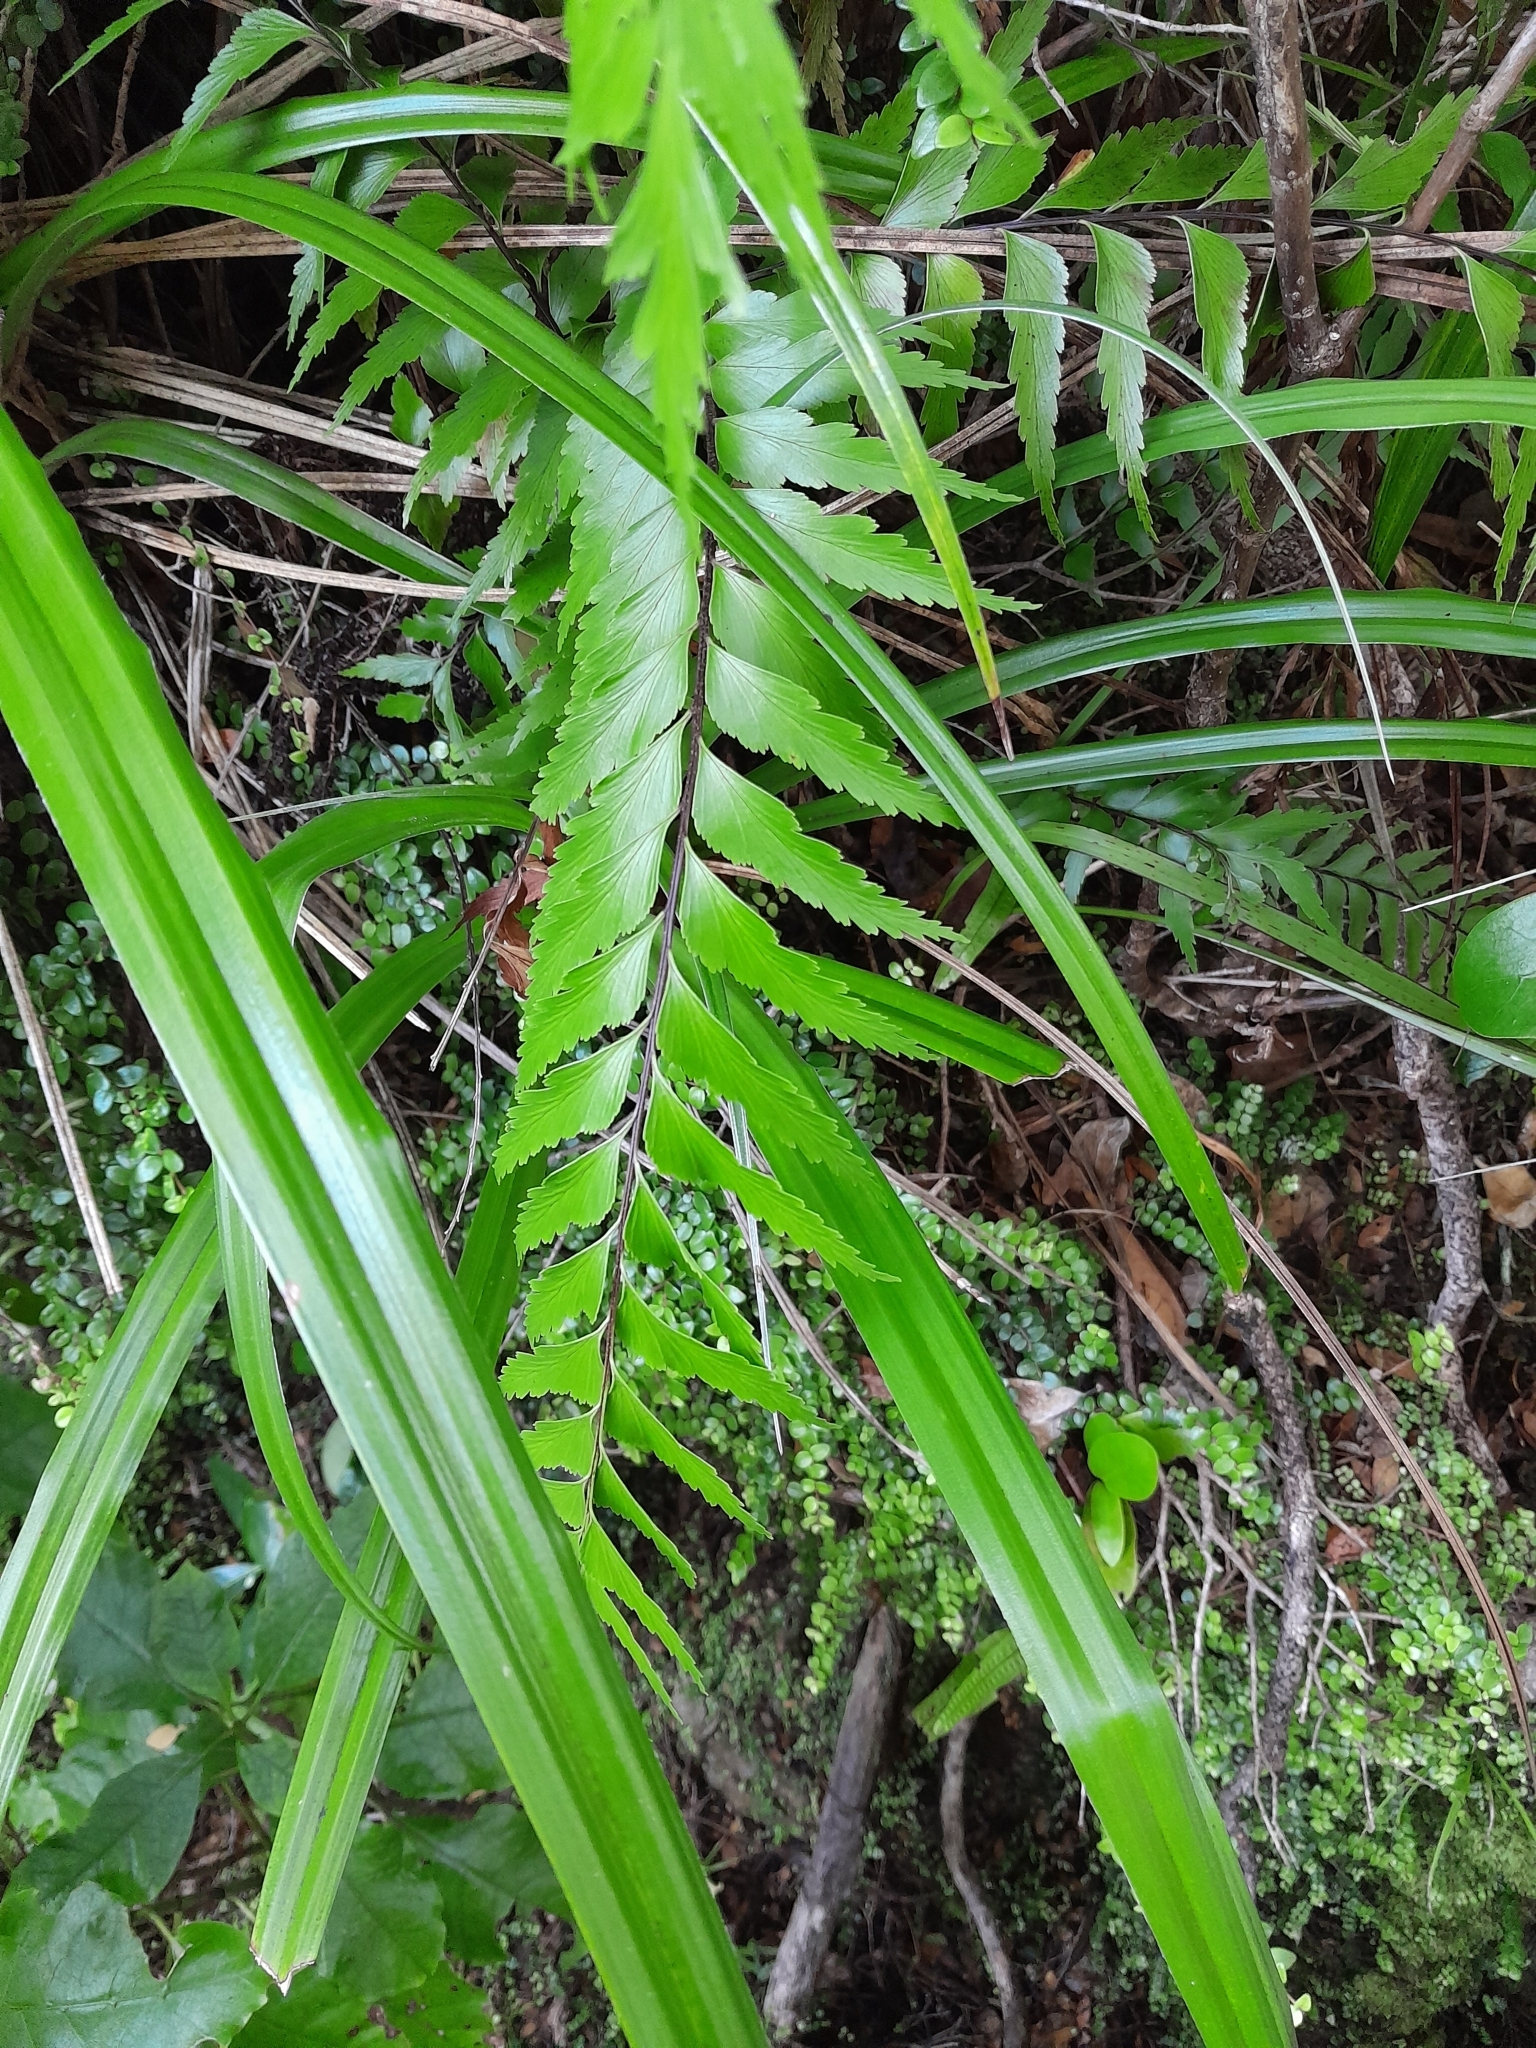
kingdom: Plantae
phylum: Tracheophyta
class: Polypodiopsida
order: Polypodiales
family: Aspleniaceae
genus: Asplenium
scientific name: Asplenium polyodon
